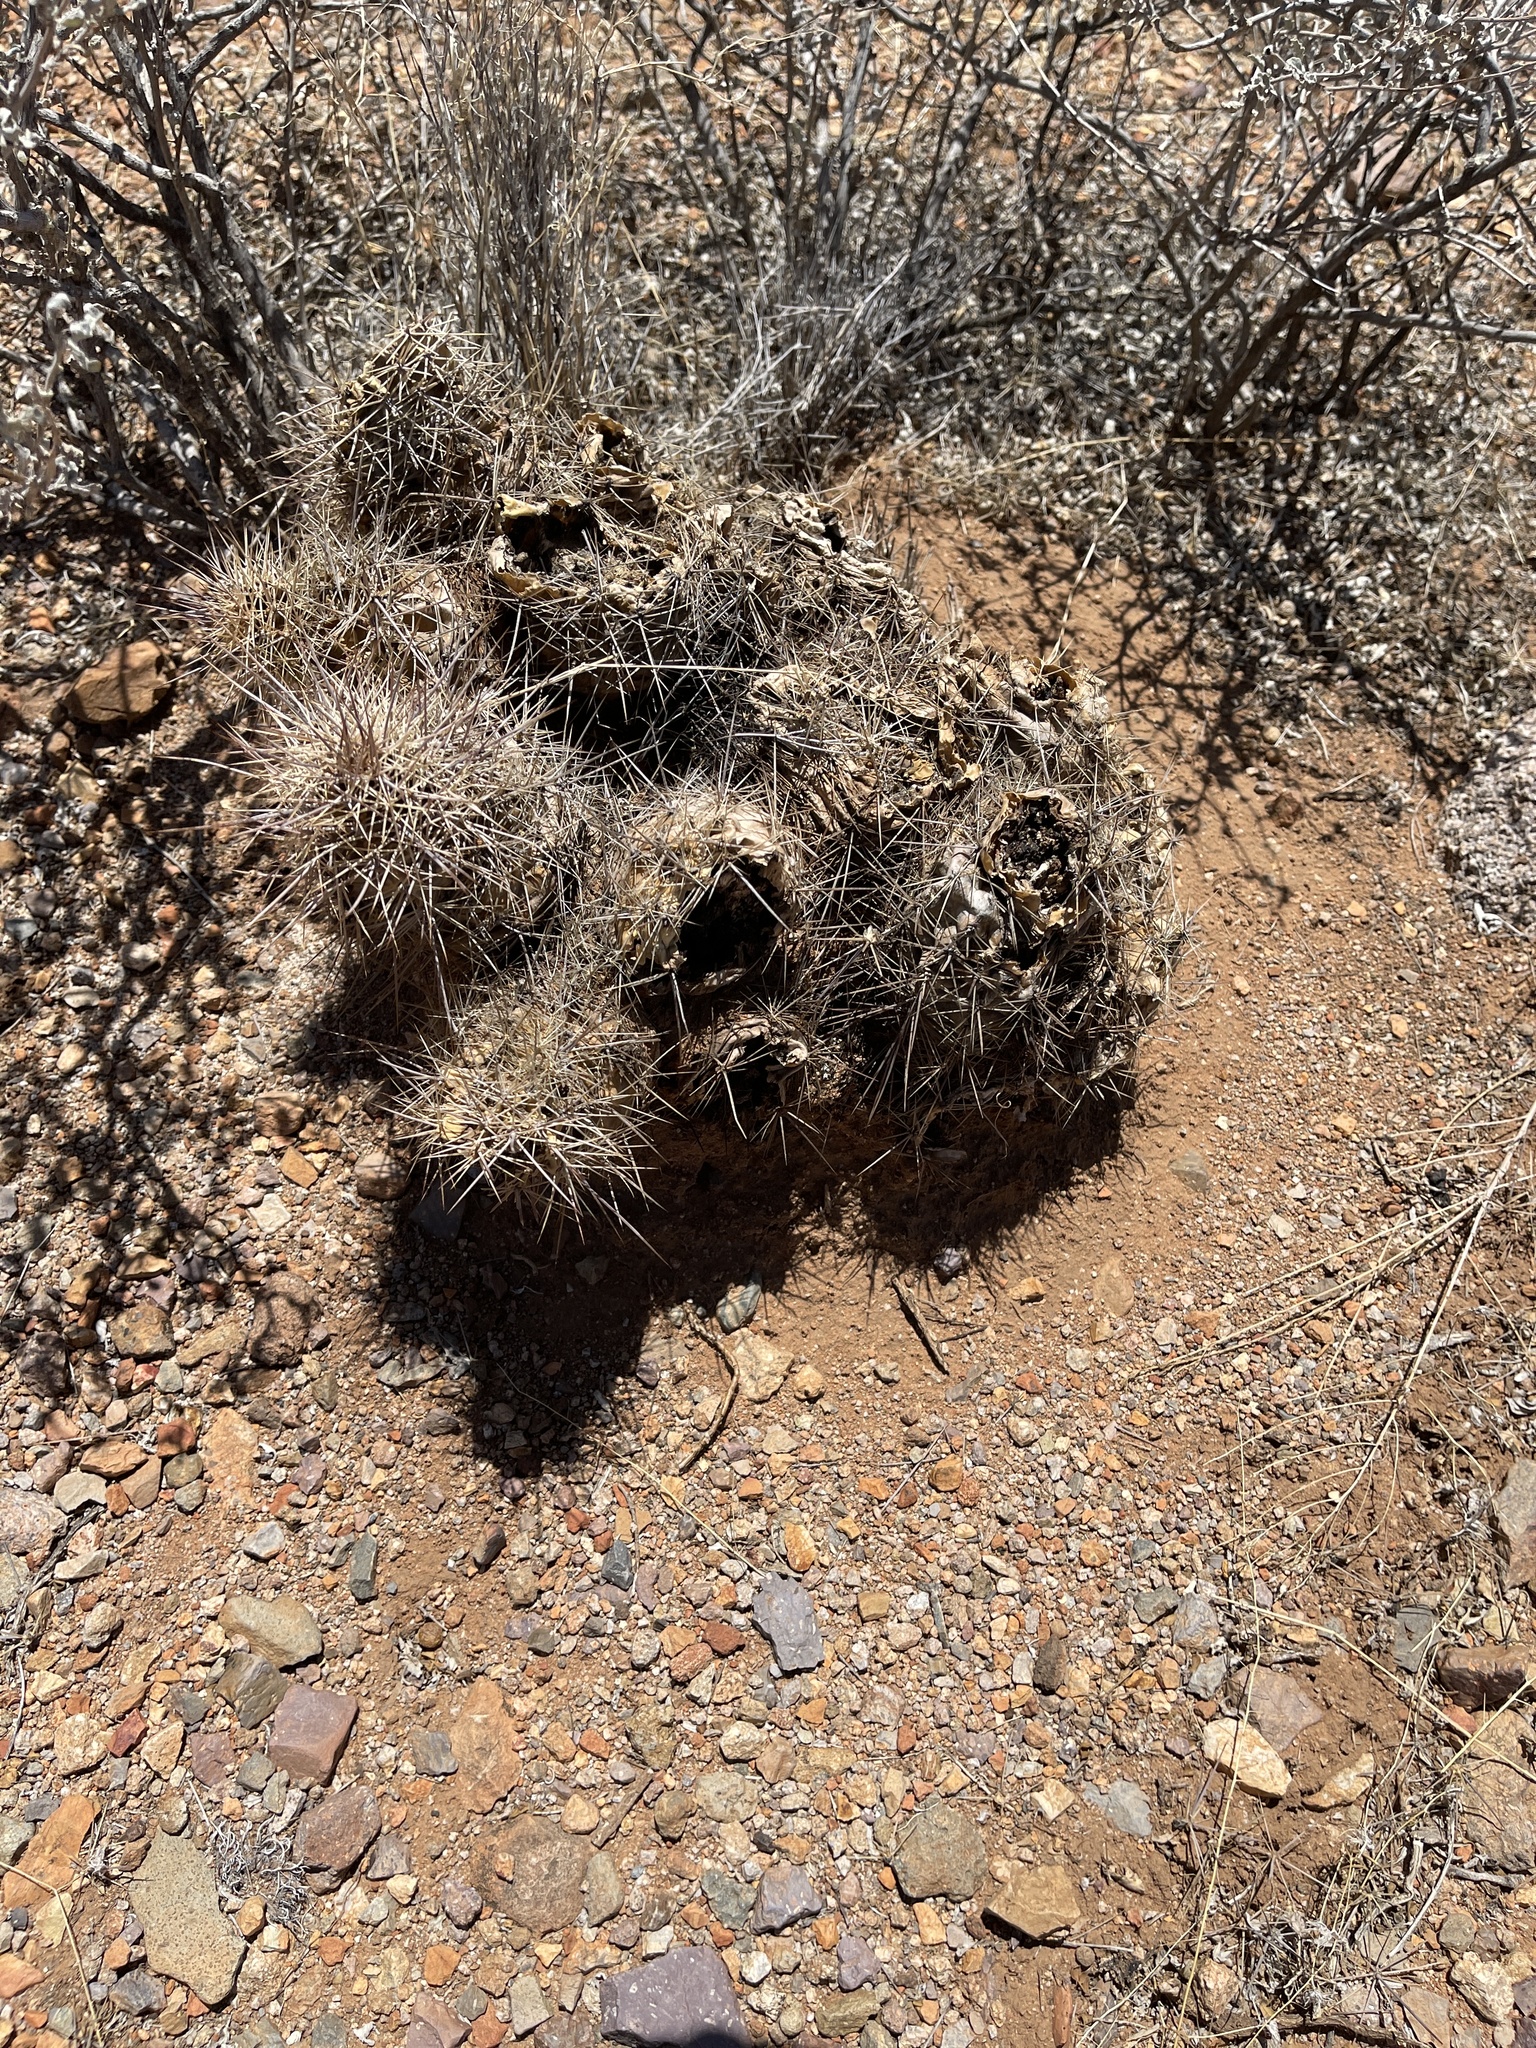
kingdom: Plantae
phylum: Tracheophyta
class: Magnoliopsida
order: Caryophyllales
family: Cactaceae
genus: Echinocereus
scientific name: Echinocereus coccineus
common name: Scarlet hedgehog cactus
